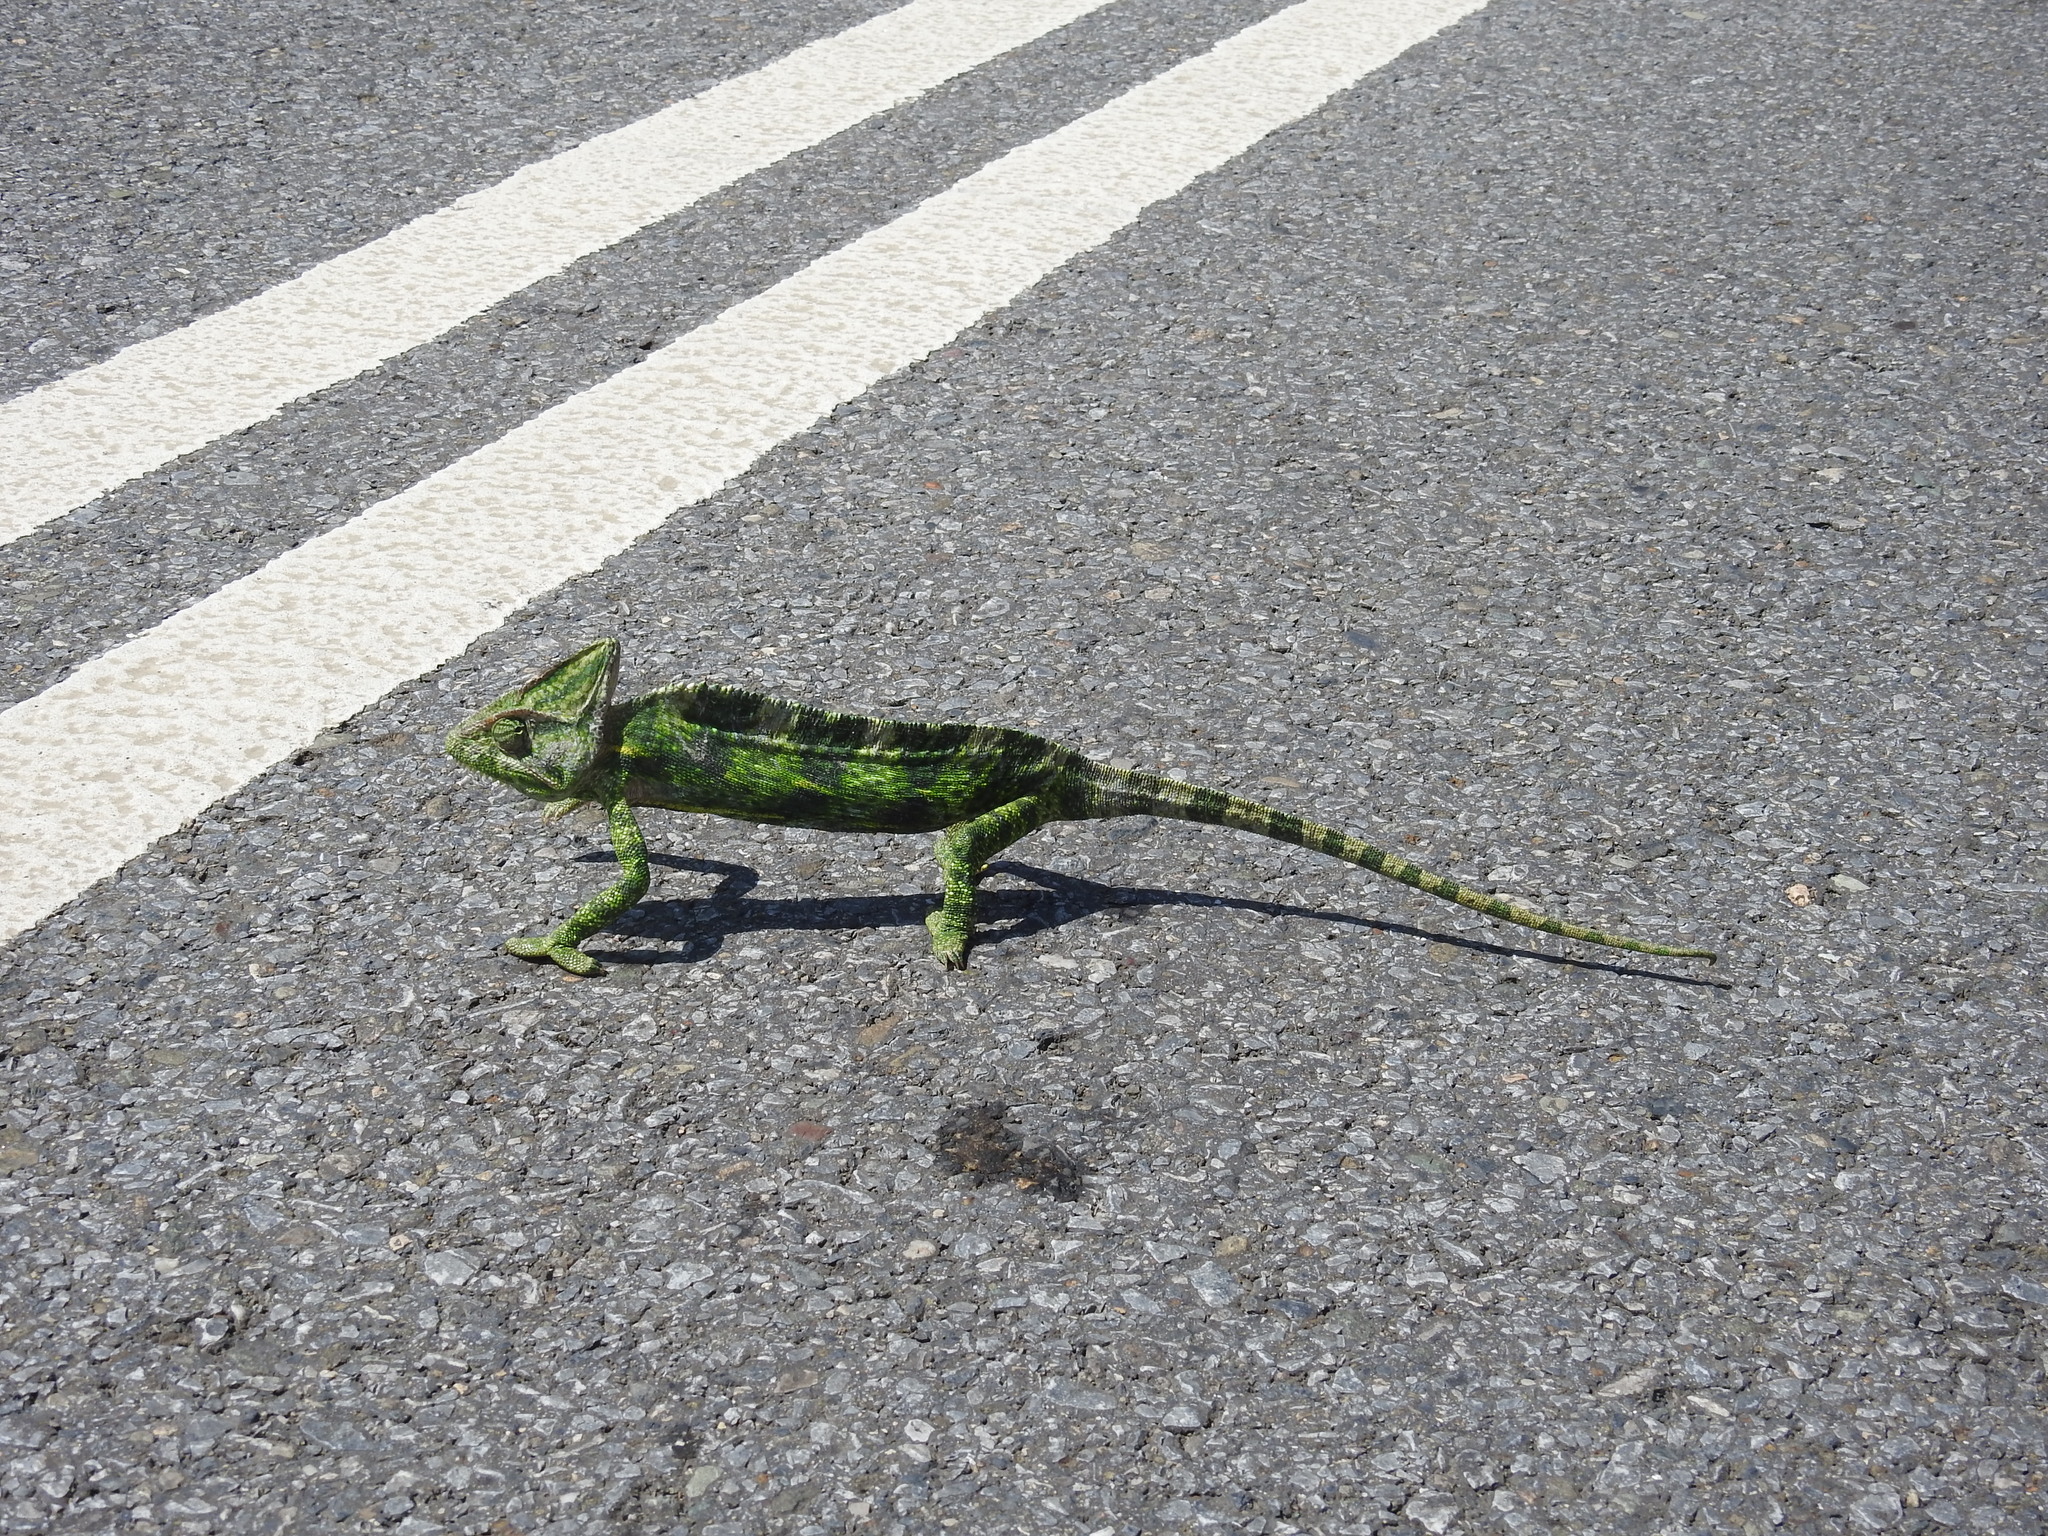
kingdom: Animalia
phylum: Chordata
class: Squamata
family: Chamaeleonidae
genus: Chamaeleo
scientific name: Chamaeleo calyptratus
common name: Veiled chameleon
